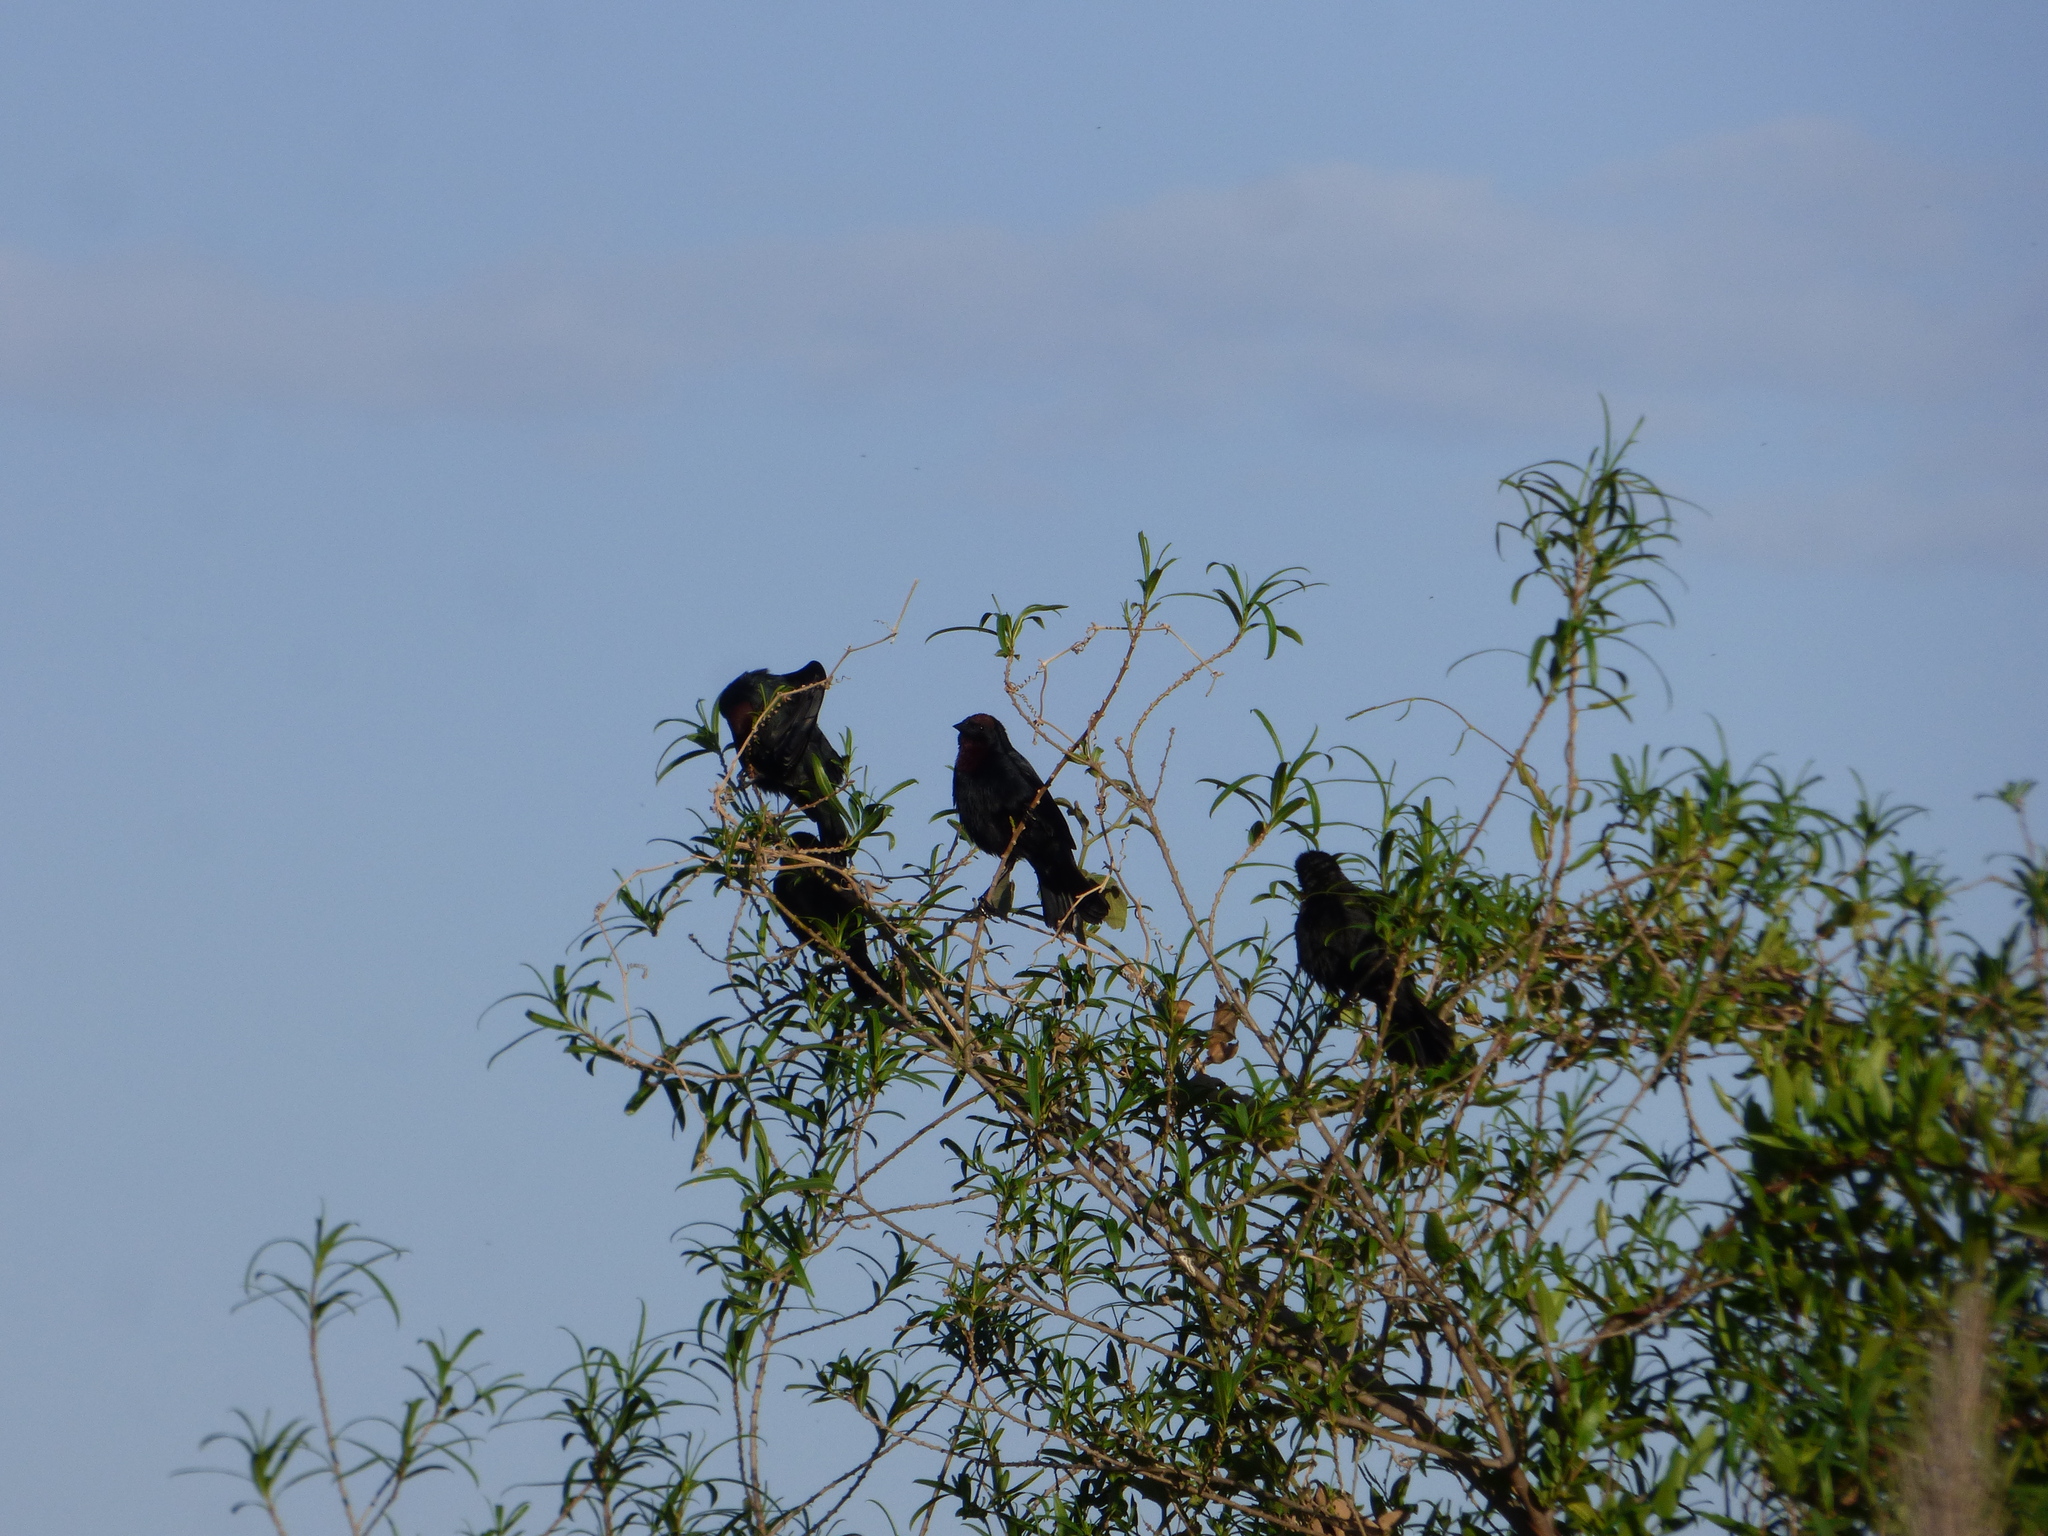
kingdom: Animalia
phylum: Chordata
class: Aves
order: Passeriformes
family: Icteridae
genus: Chrysomus
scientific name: Chrysomus ruficapillus
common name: Chestnut-capped blackbird
